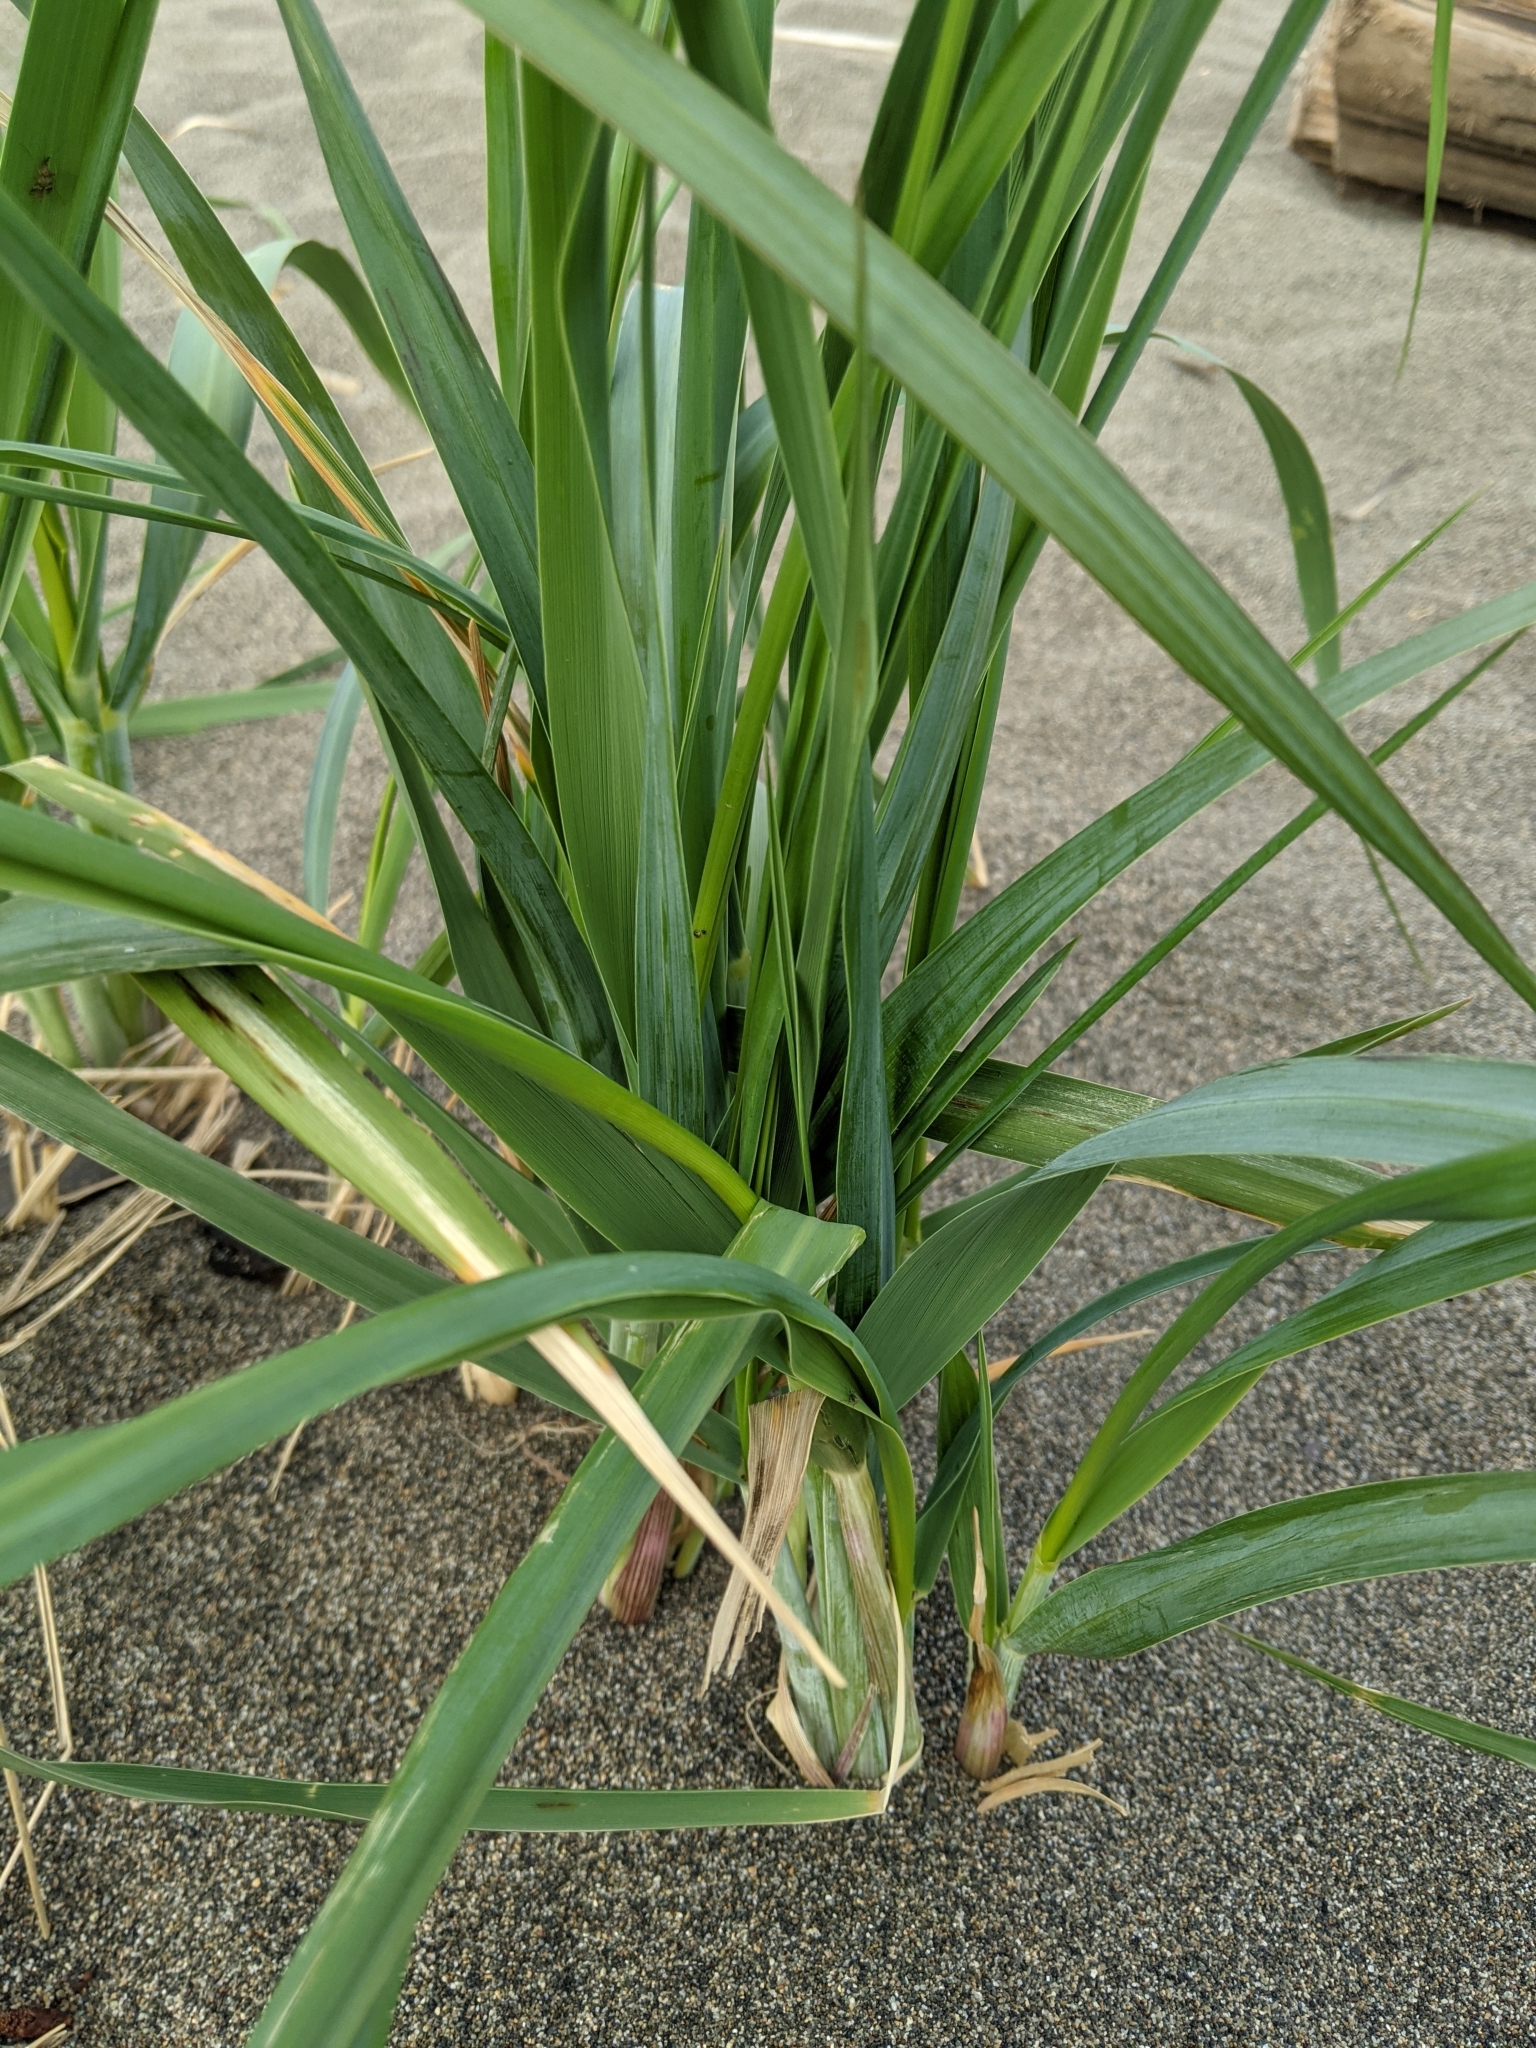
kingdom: Plantae
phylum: Tracheophyta
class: Liliopsida
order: Poales
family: Poaceae
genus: Leymus
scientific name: Leymus mollis
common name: American dune grass
